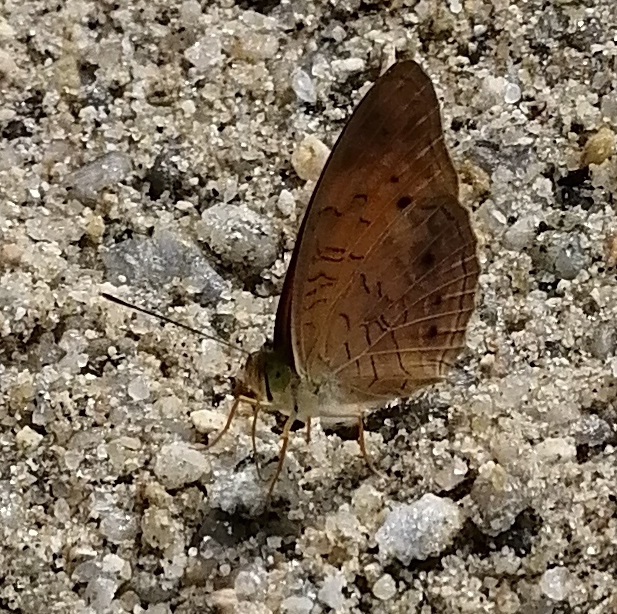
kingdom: Animalia
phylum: Arthropoda
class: Insecta
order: Lepidoptera
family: Nymphalidae
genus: Phalanta
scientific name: Phalanta alcippe
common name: Small leopard
